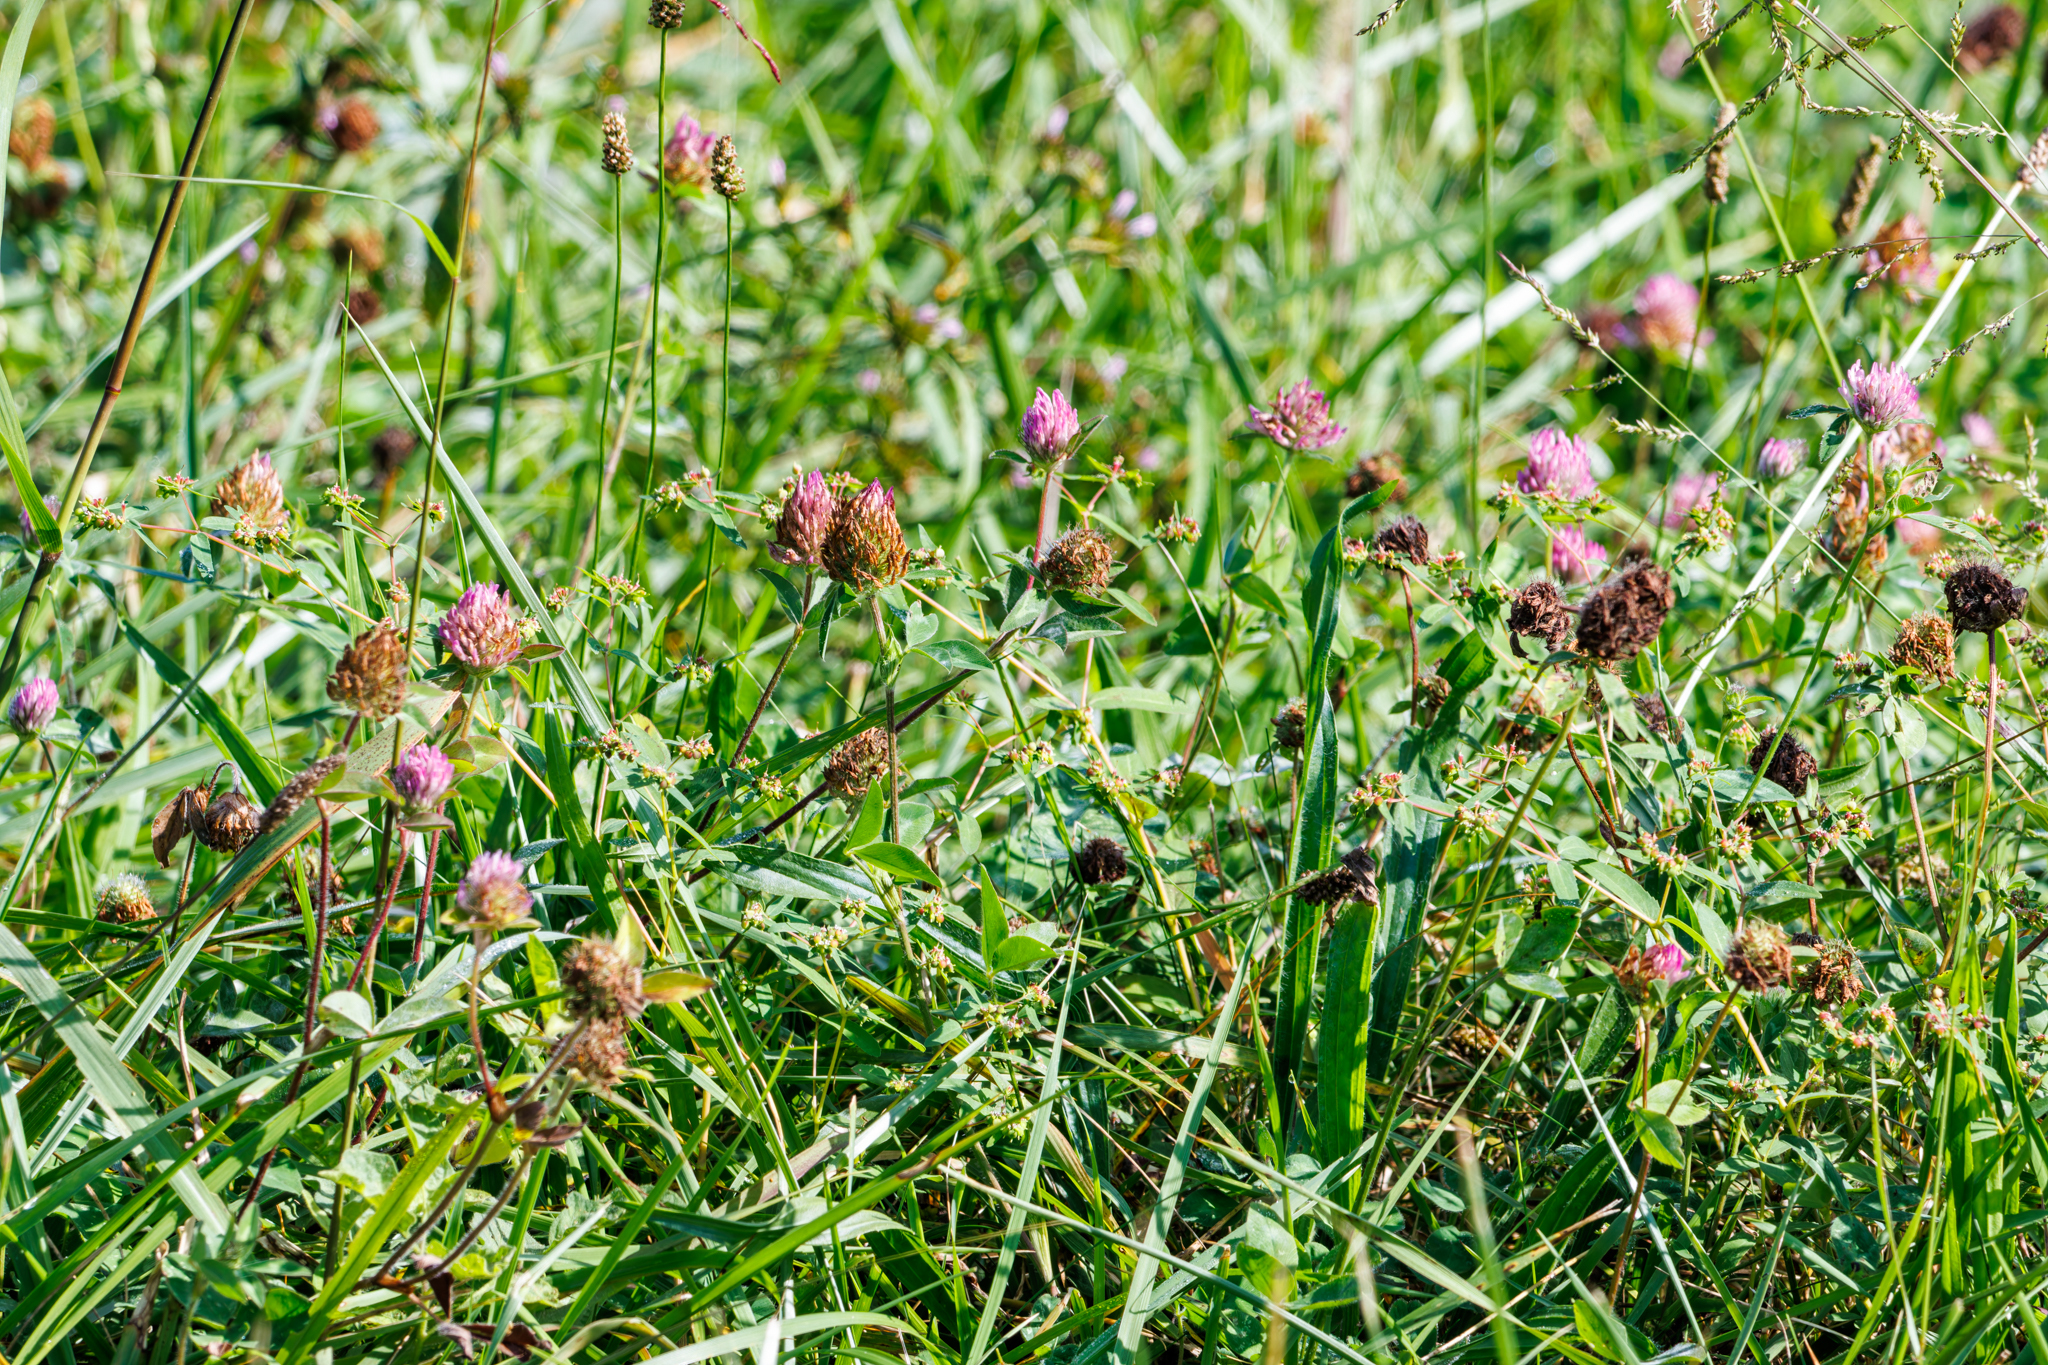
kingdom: Plantae
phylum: Tracheophyta
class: Magnoliopsida
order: Fabales
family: Fabaceae
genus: Trifolium
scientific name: Trifolium pratense
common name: Red clover
